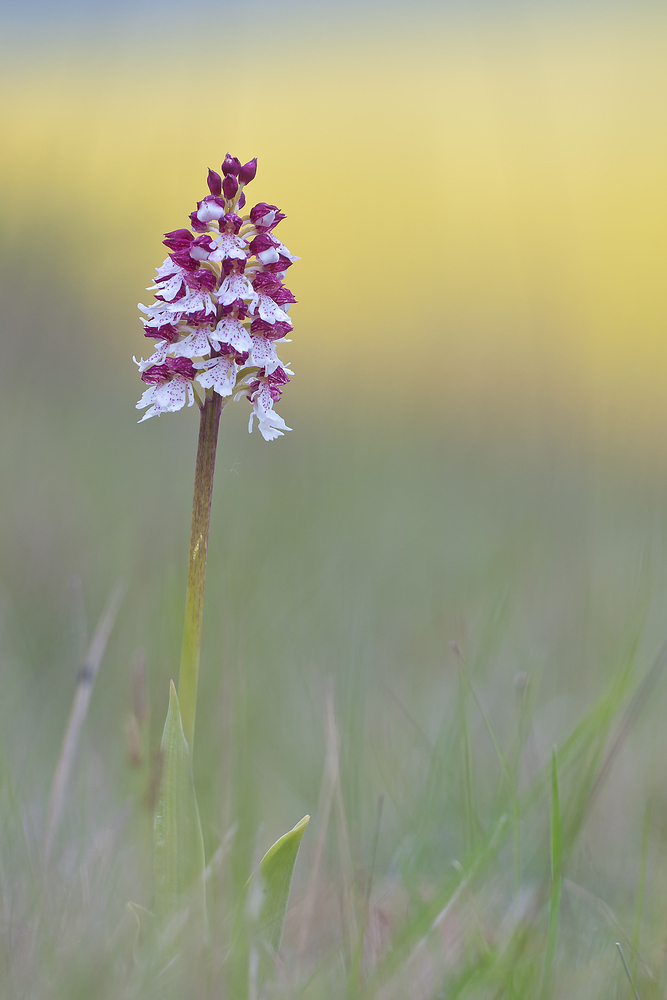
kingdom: Plantae
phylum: Tracheophyta
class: Liliopsida
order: Asparagales
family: Orchidaceae
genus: Orchis
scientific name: Orchis purpurea
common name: Lady orchid
